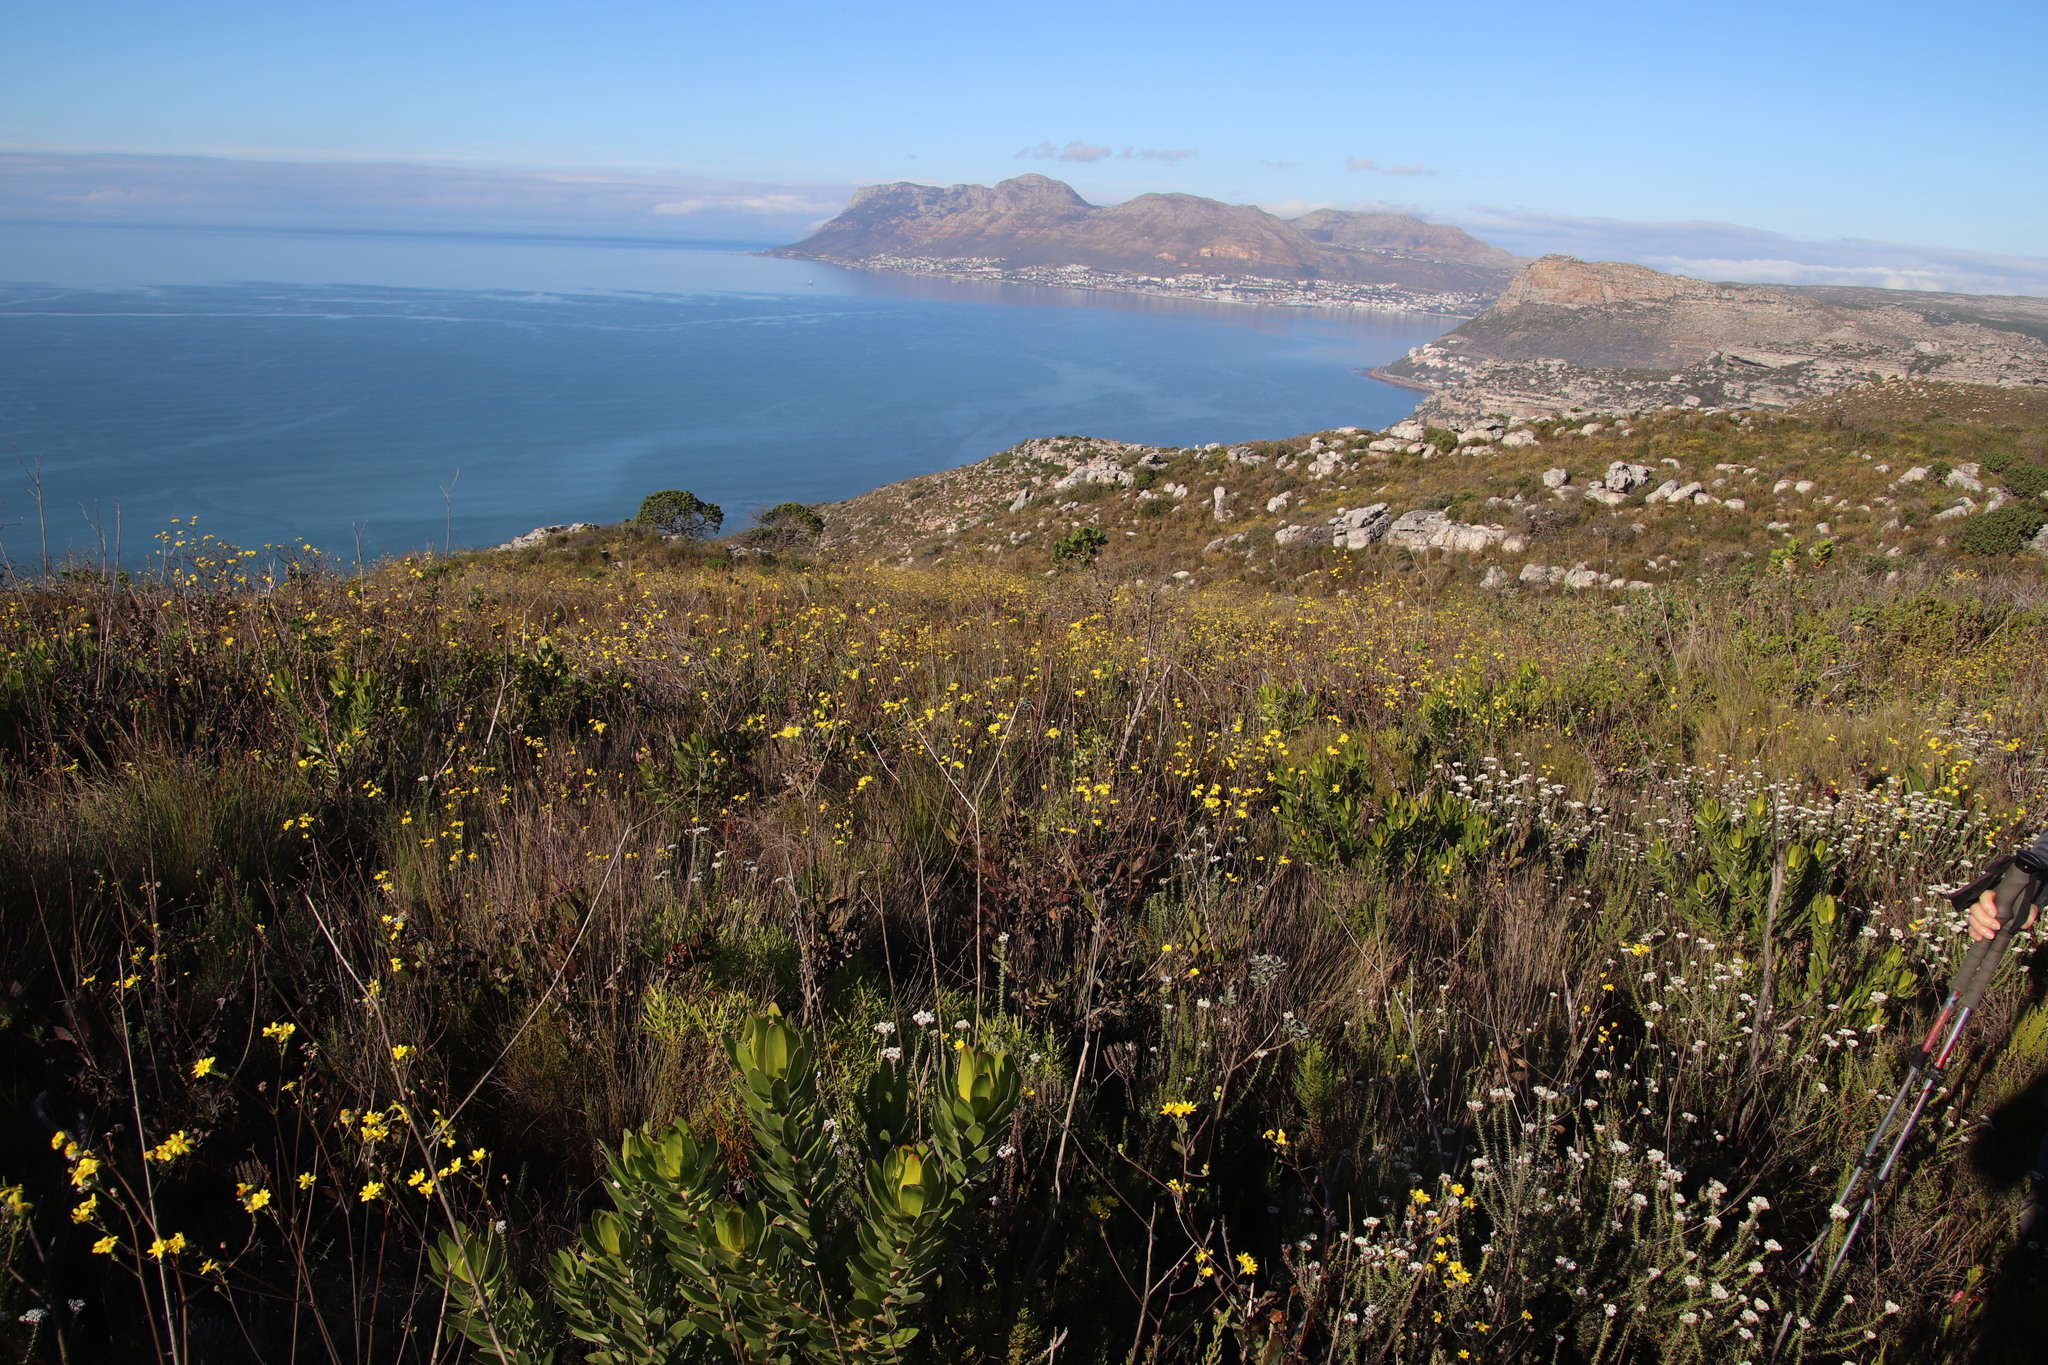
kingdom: Plantae
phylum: Tracheophyta
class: Magnoliopsida
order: Asterales
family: Asteraceae
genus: Othonna
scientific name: Othonna quinquedentata
